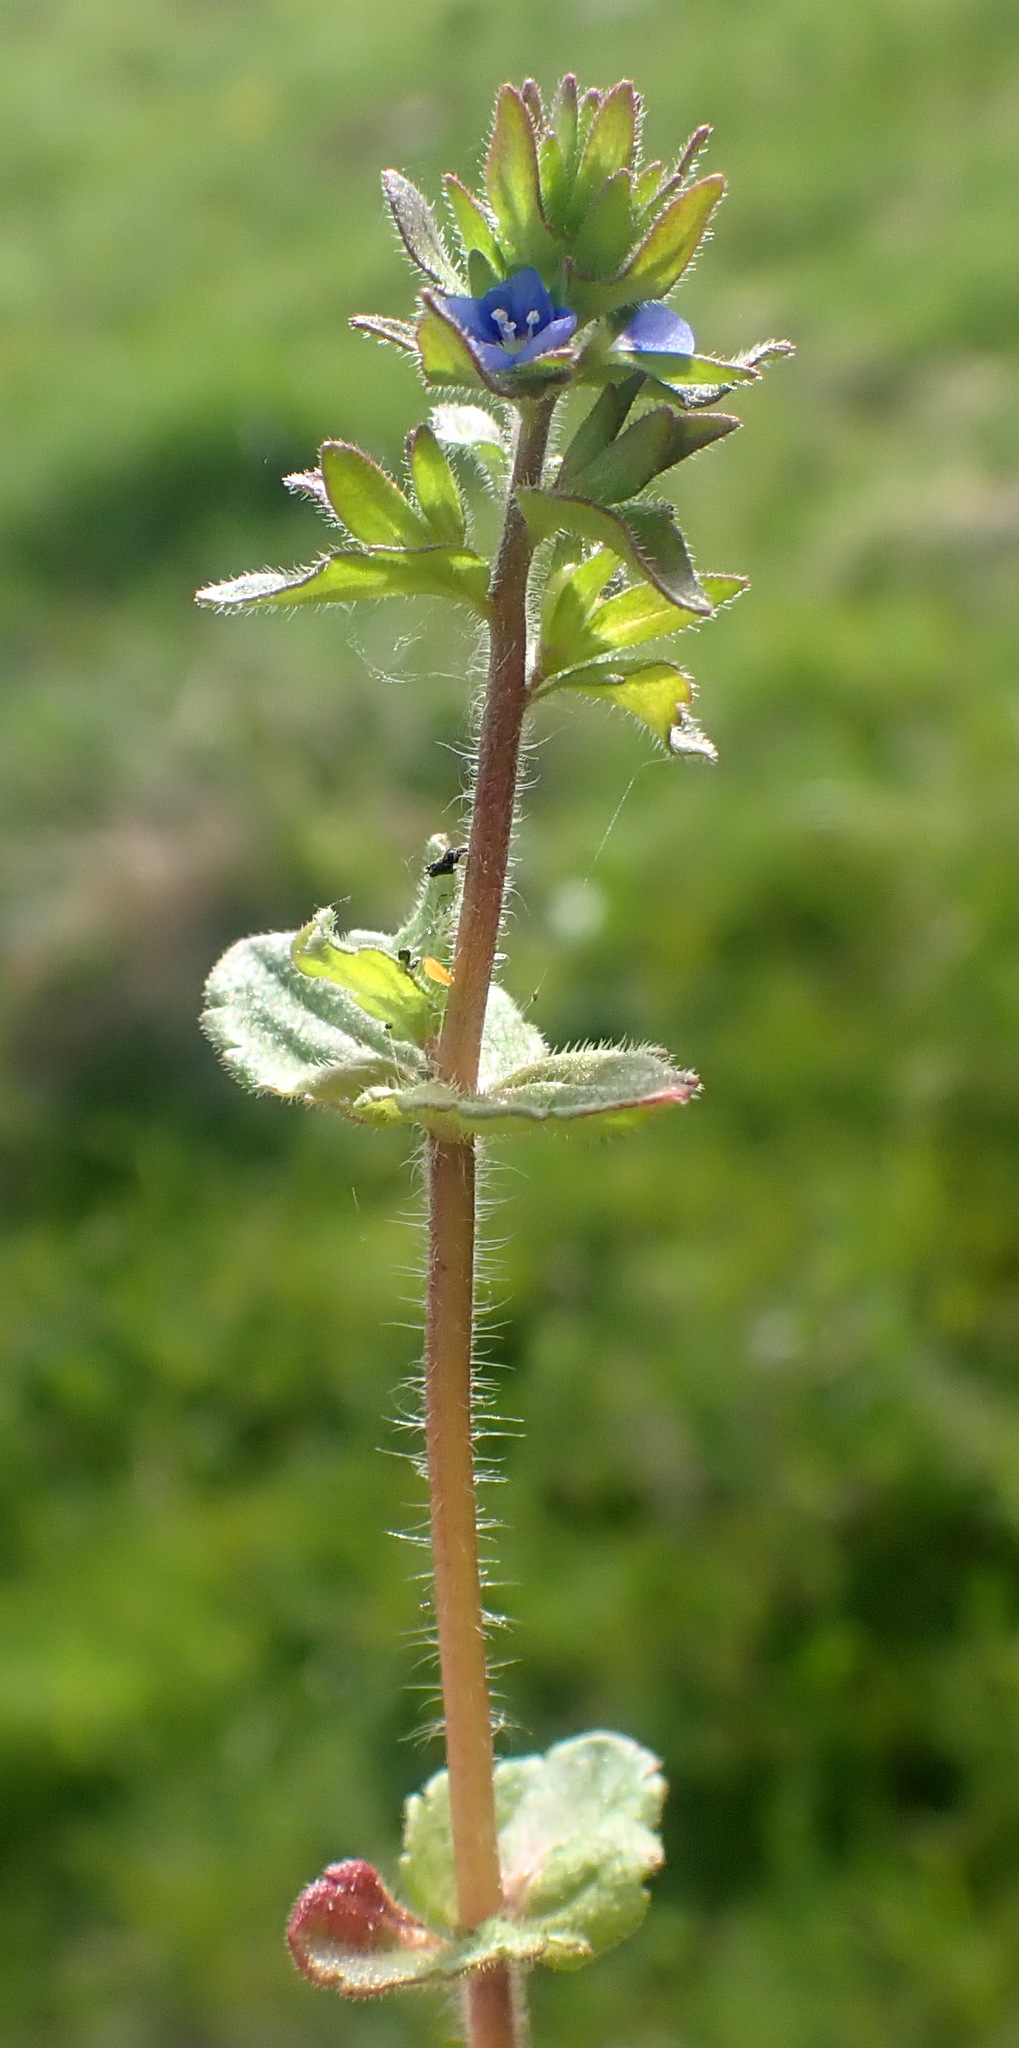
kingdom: Plantae
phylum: Tracheophyta
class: Magnoliopsida
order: Lamiales
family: Plantaginaceae
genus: Veronica
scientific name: Veronica arvensis
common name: Corn speedwell
